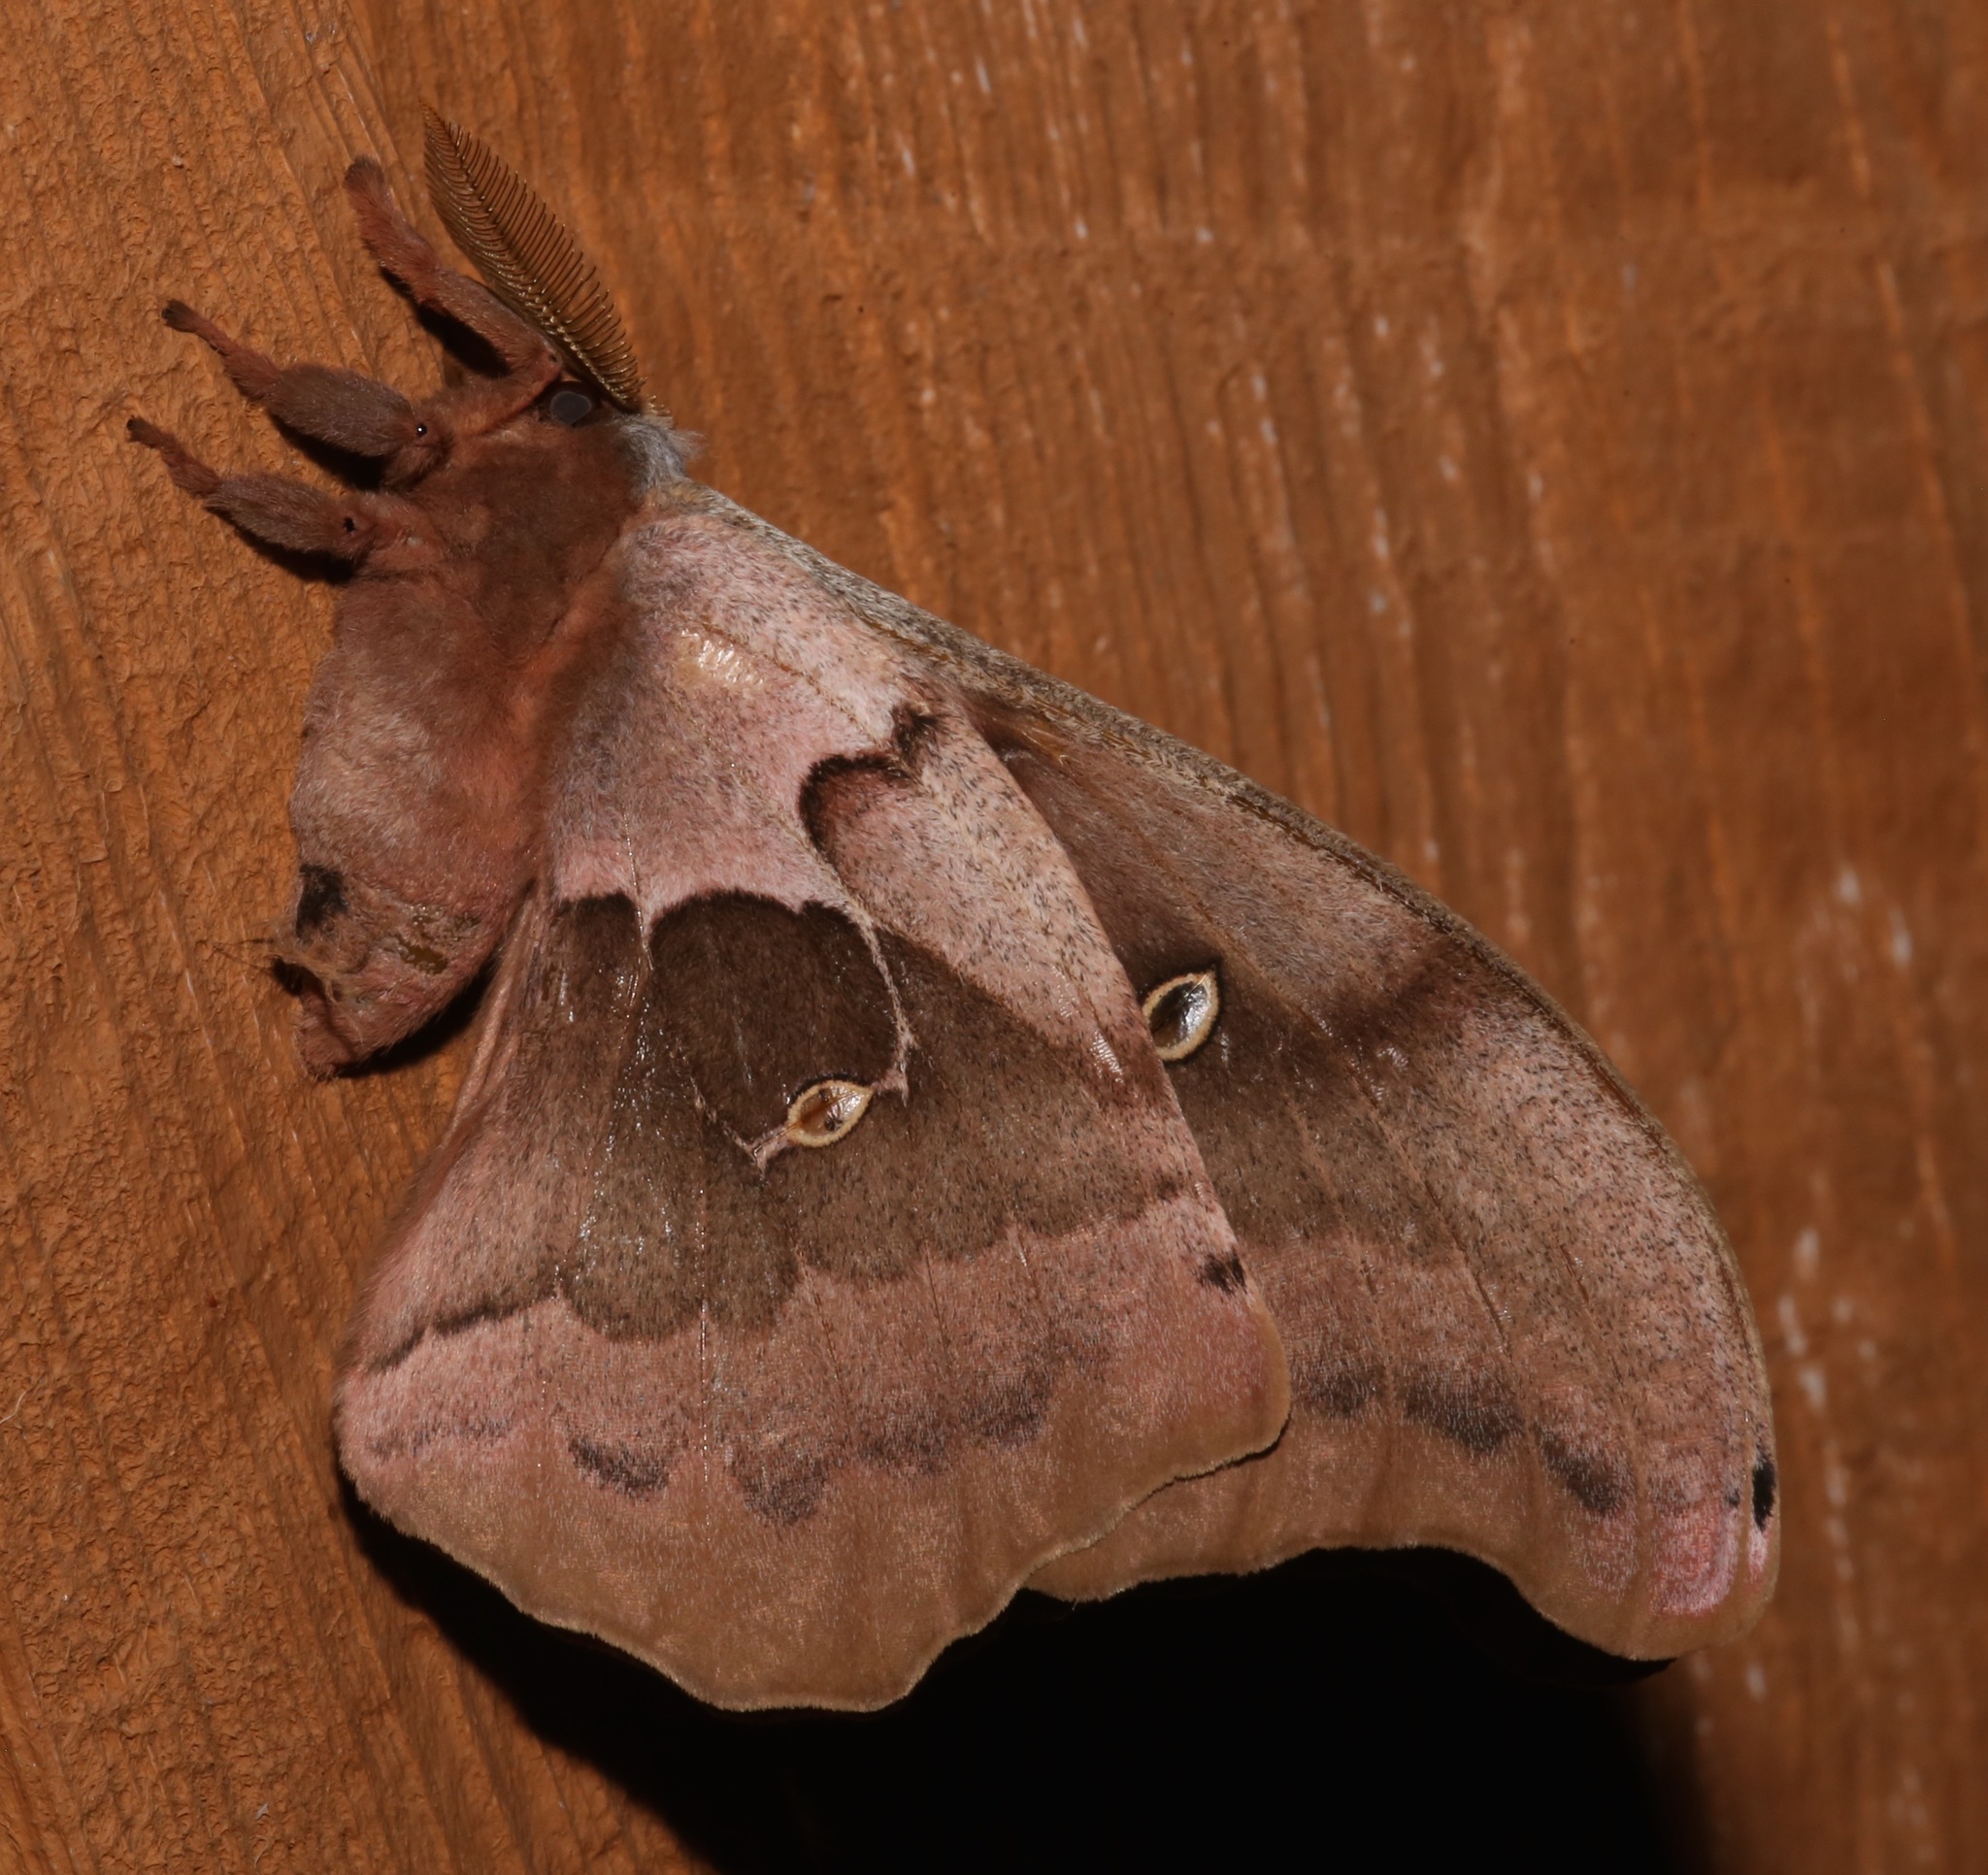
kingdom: Animalia
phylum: Arthropoda
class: Insecta
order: Lepidoptera
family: Saturniidae
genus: Antheraea
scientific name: Antheraea polyphemus
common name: Polyphemus moth
